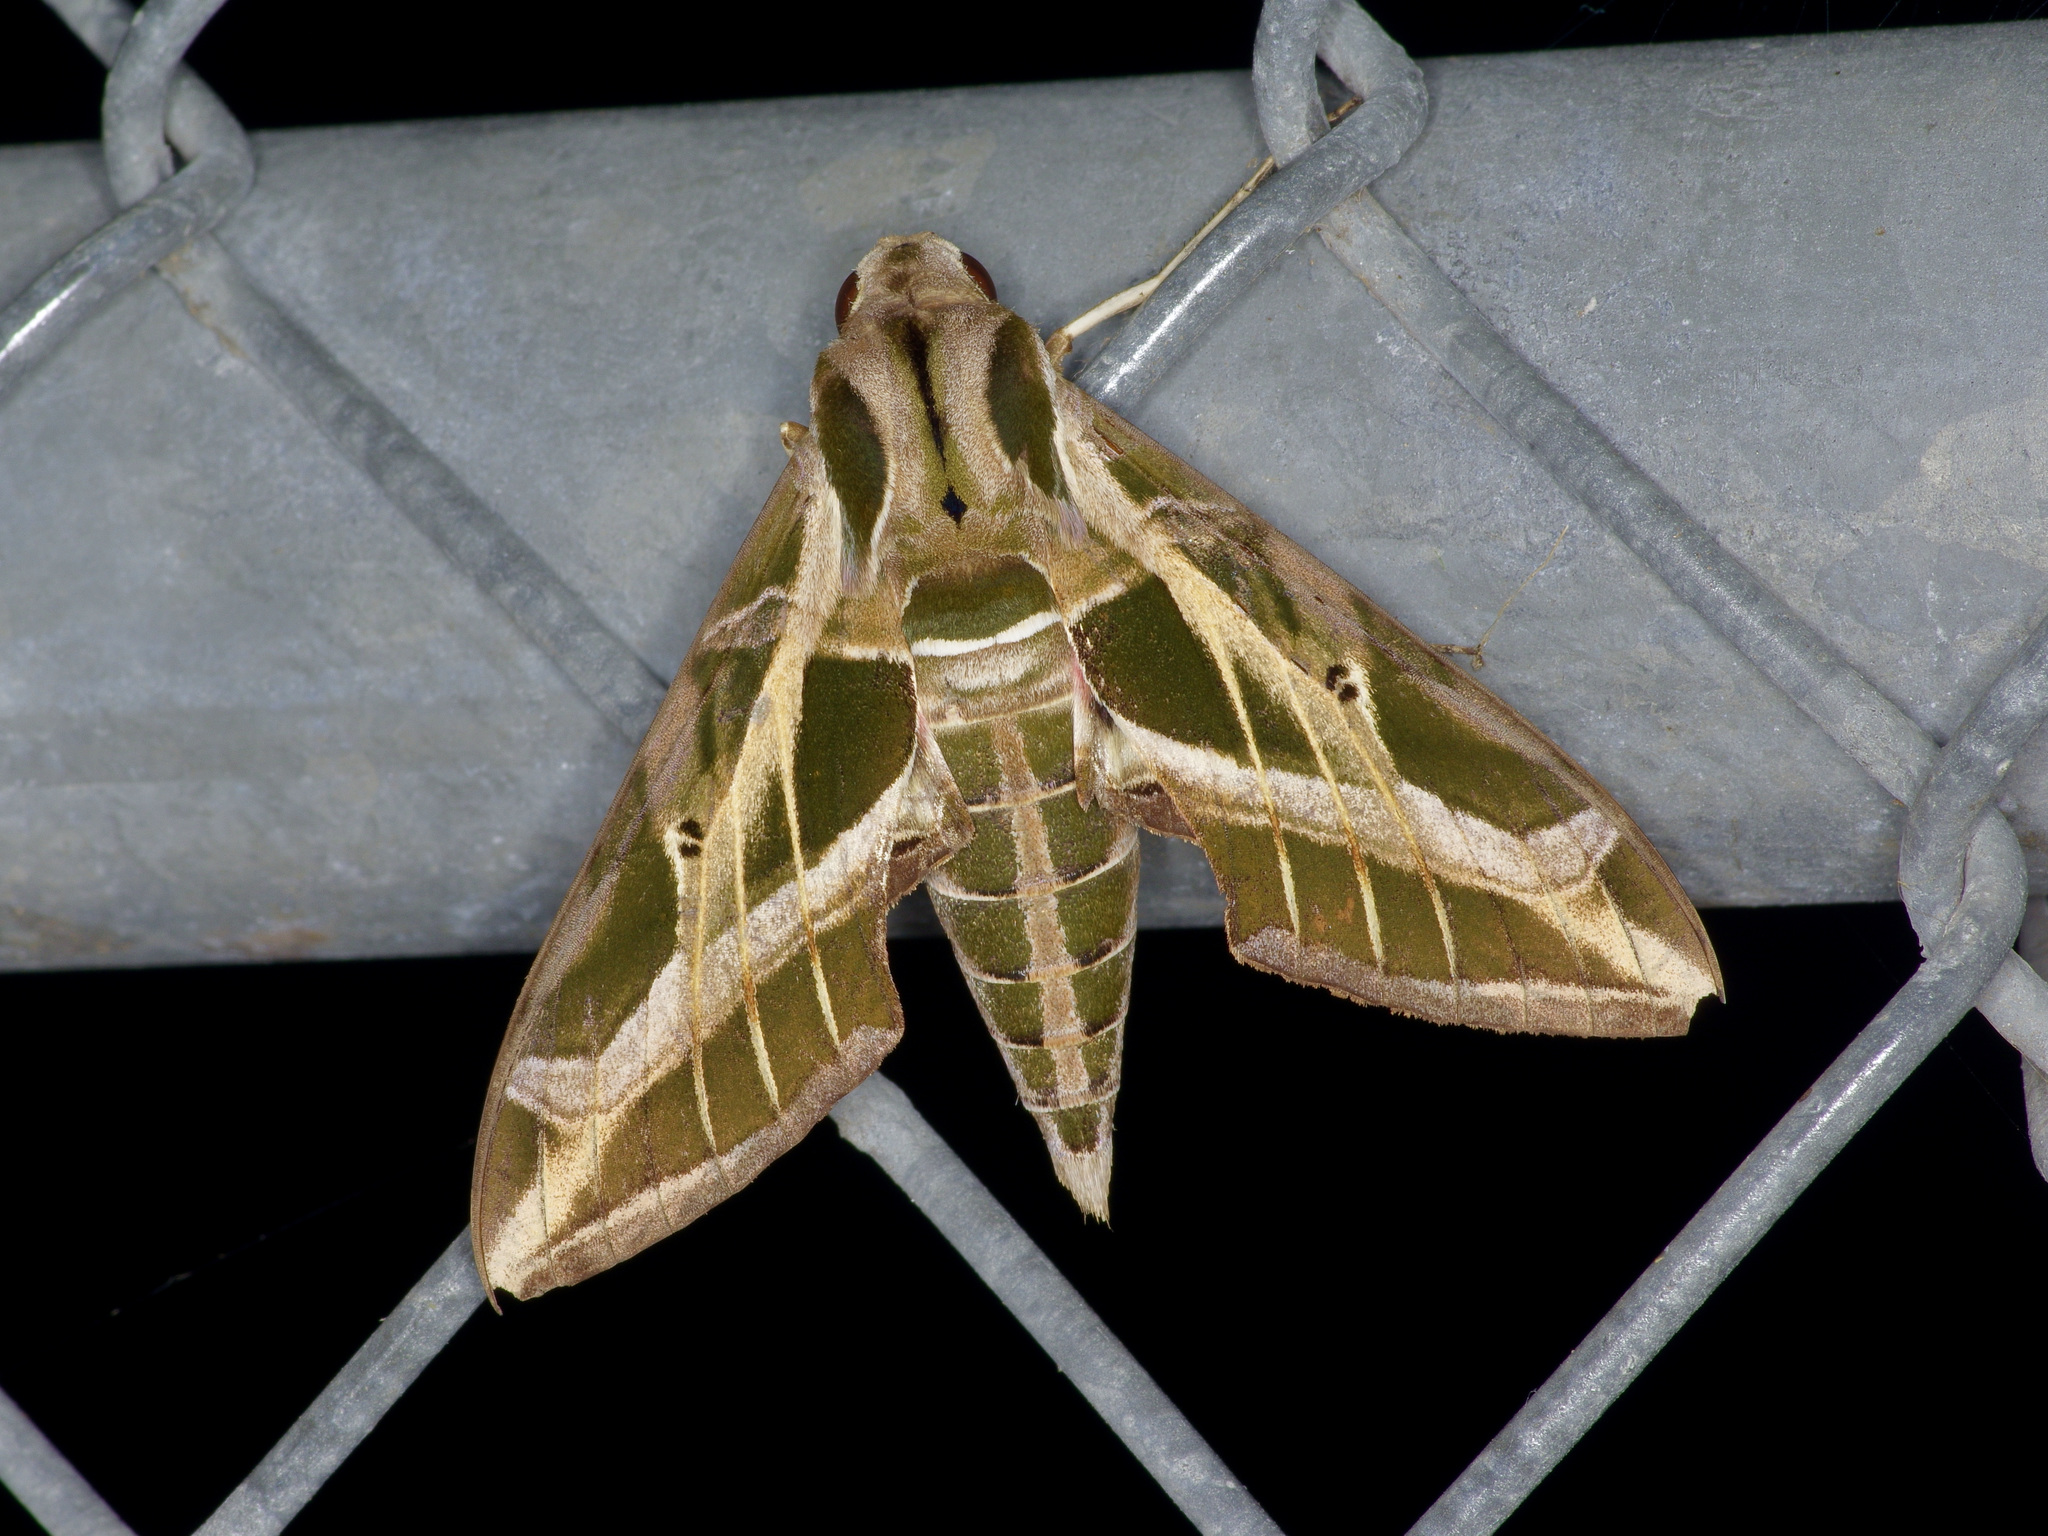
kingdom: Animalia
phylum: Arthropoda
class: Insecta
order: Lepidoptera
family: Sphingidae
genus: Eumorpha
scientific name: Eumorpha vitis
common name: Vine sphinx
